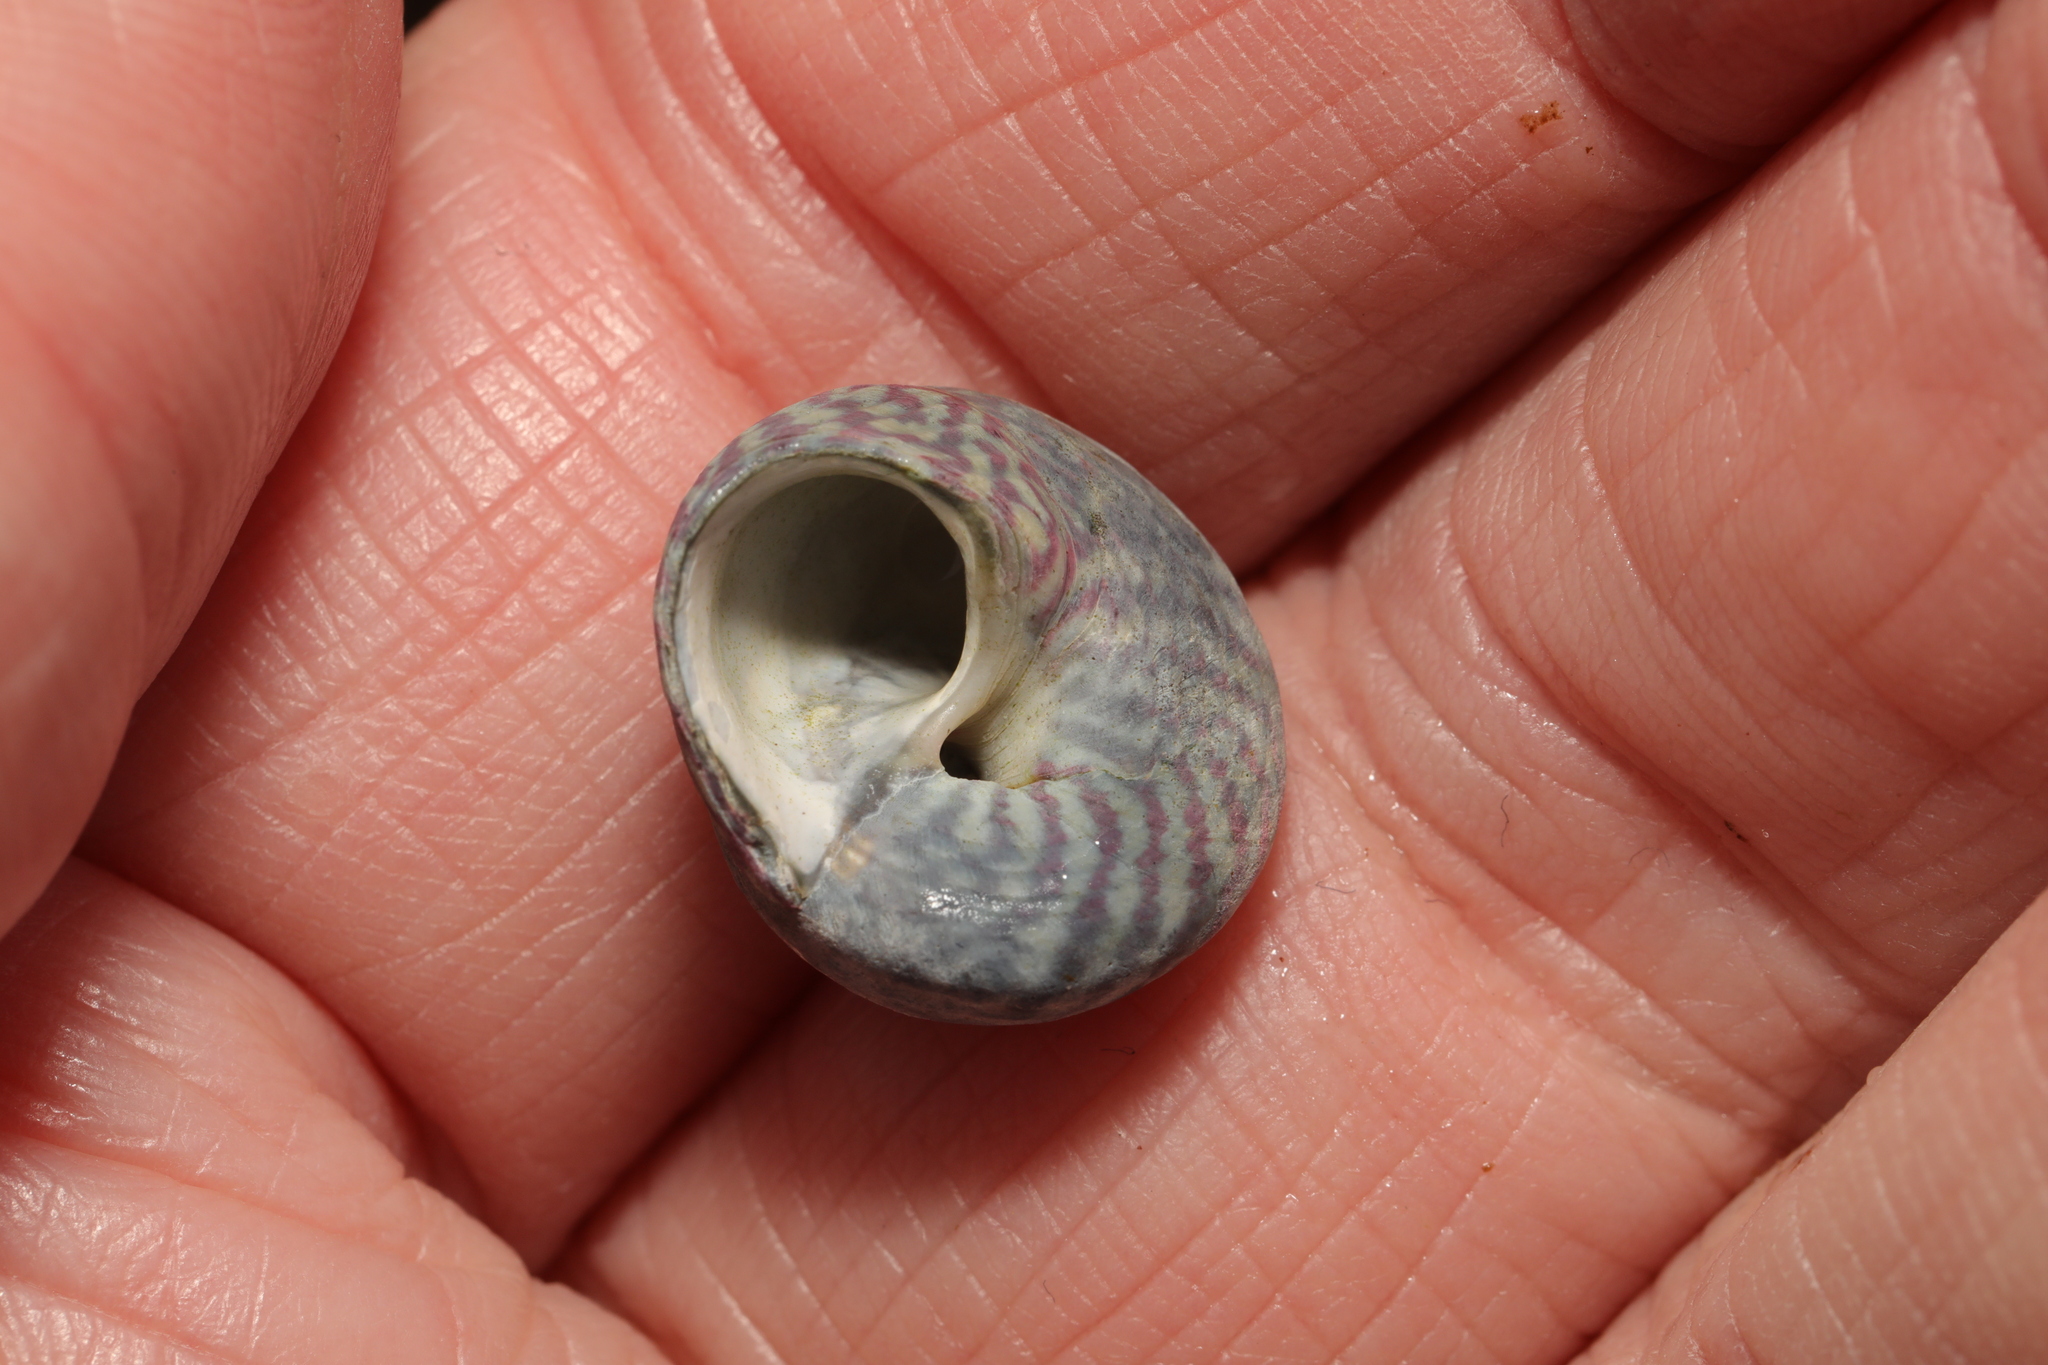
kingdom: Animalia
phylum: Mollusca
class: Gastropoda
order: Trochida
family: Trochidae
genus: Steromphala
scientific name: Steromphala umbilicalis
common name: Flat top shell
